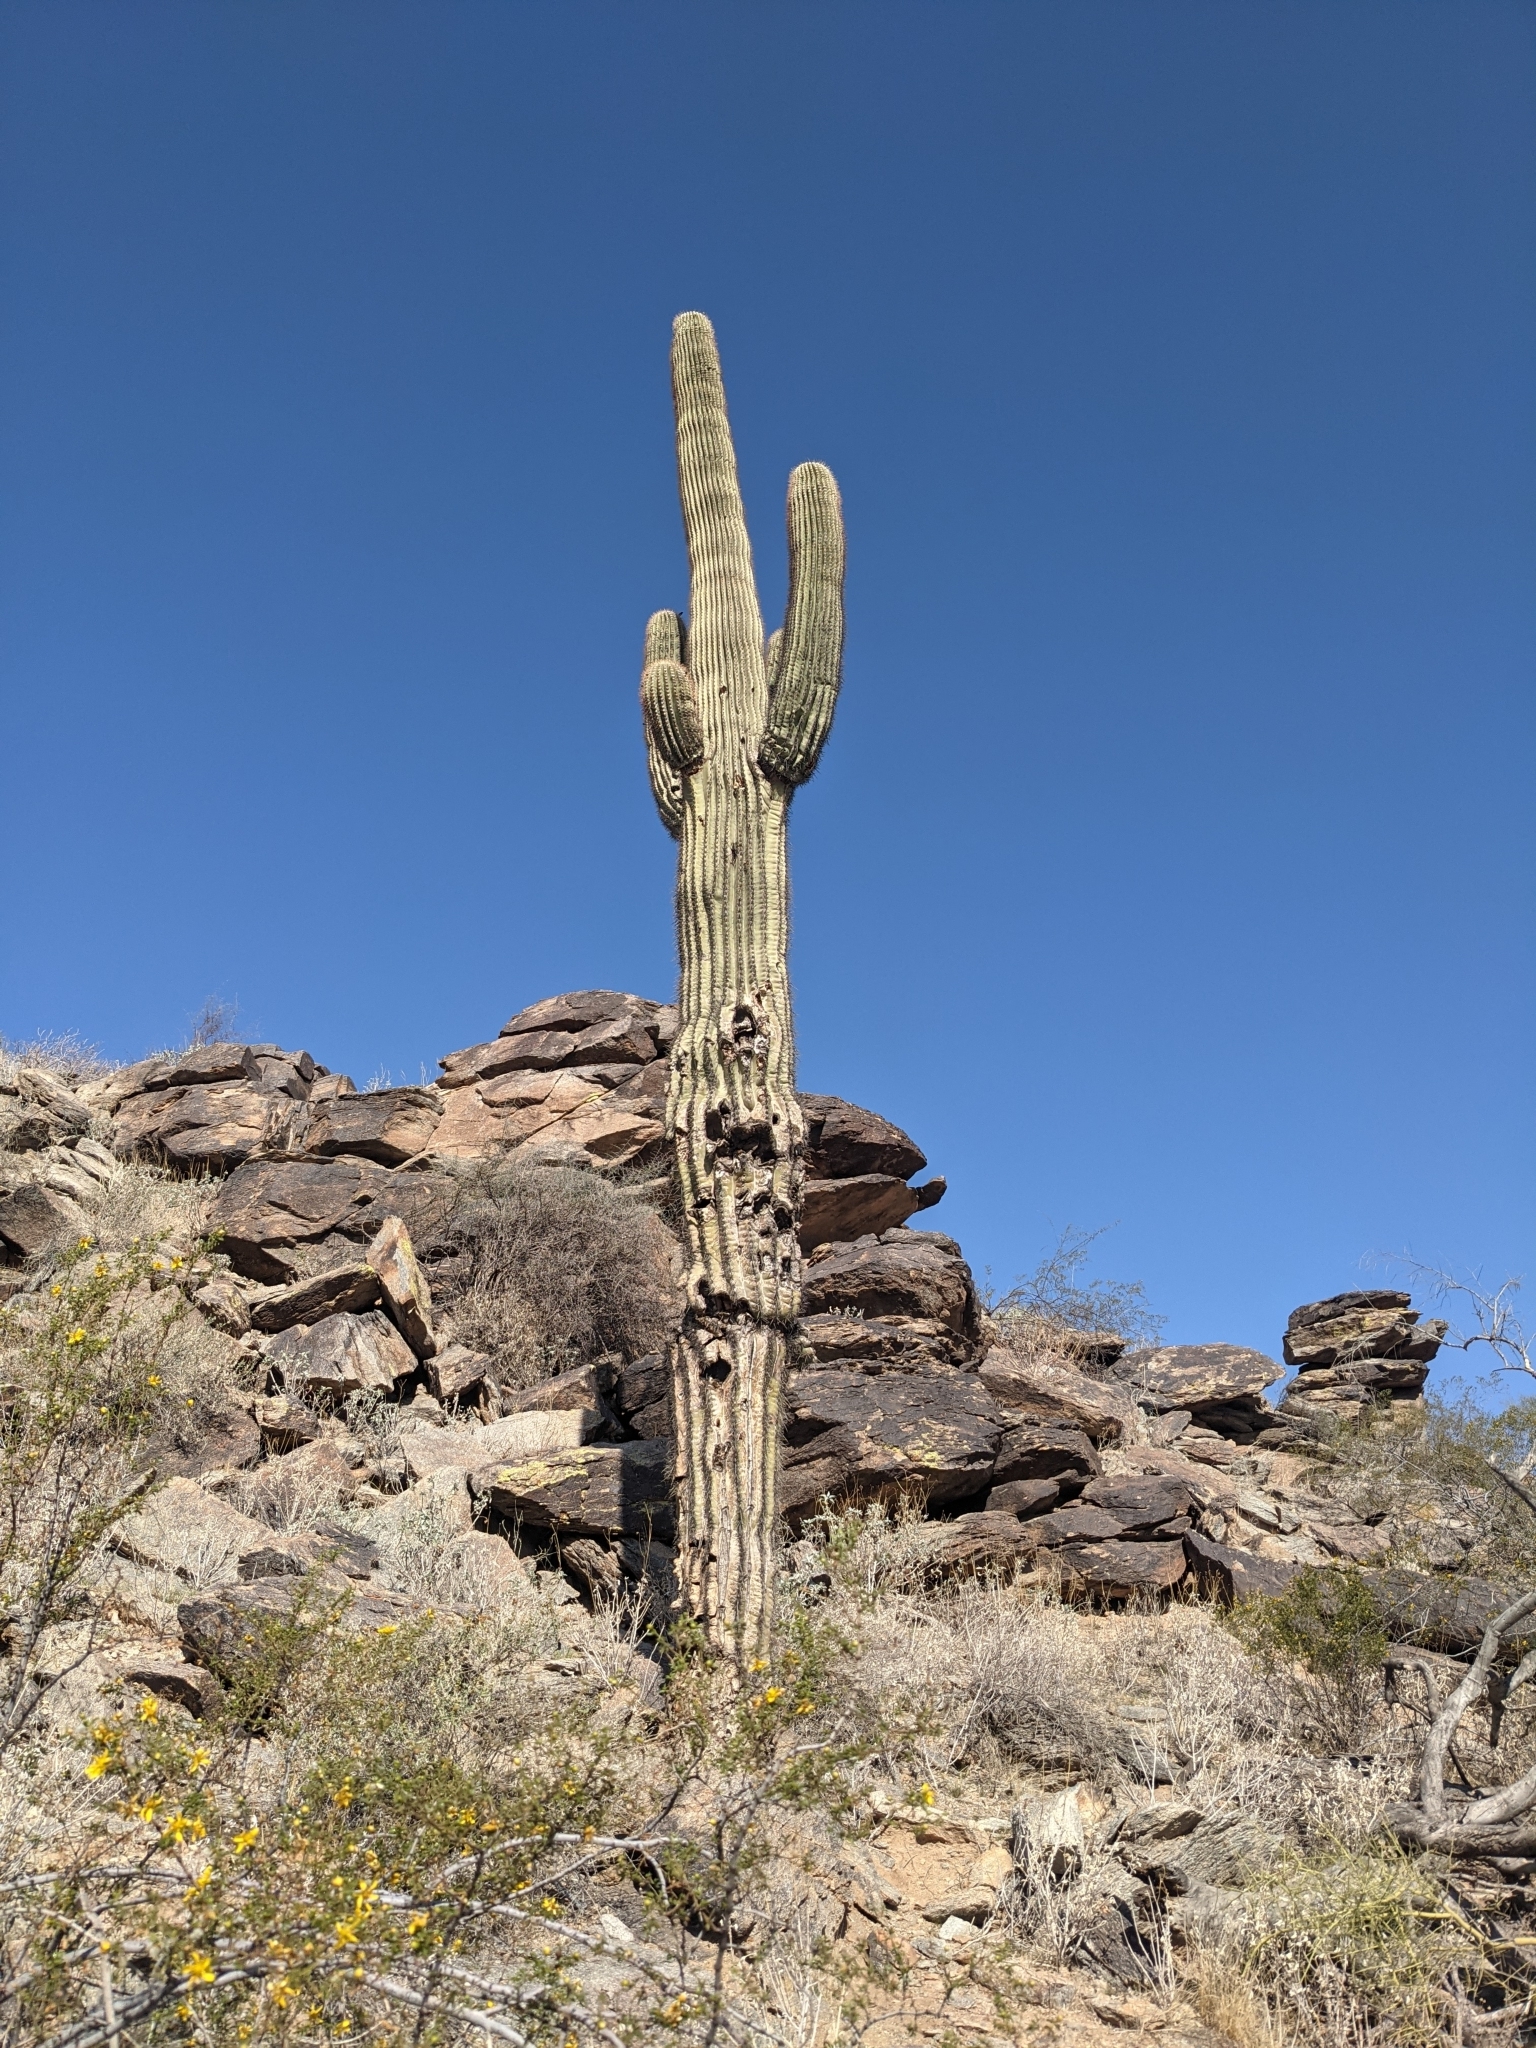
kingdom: Plantae
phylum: Tracheophyta
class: Magnoliopsida
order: Caryophyllales
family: Cactaceae
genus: Carnegiea
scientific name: Carnegiea gigantea
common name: Saguaro
